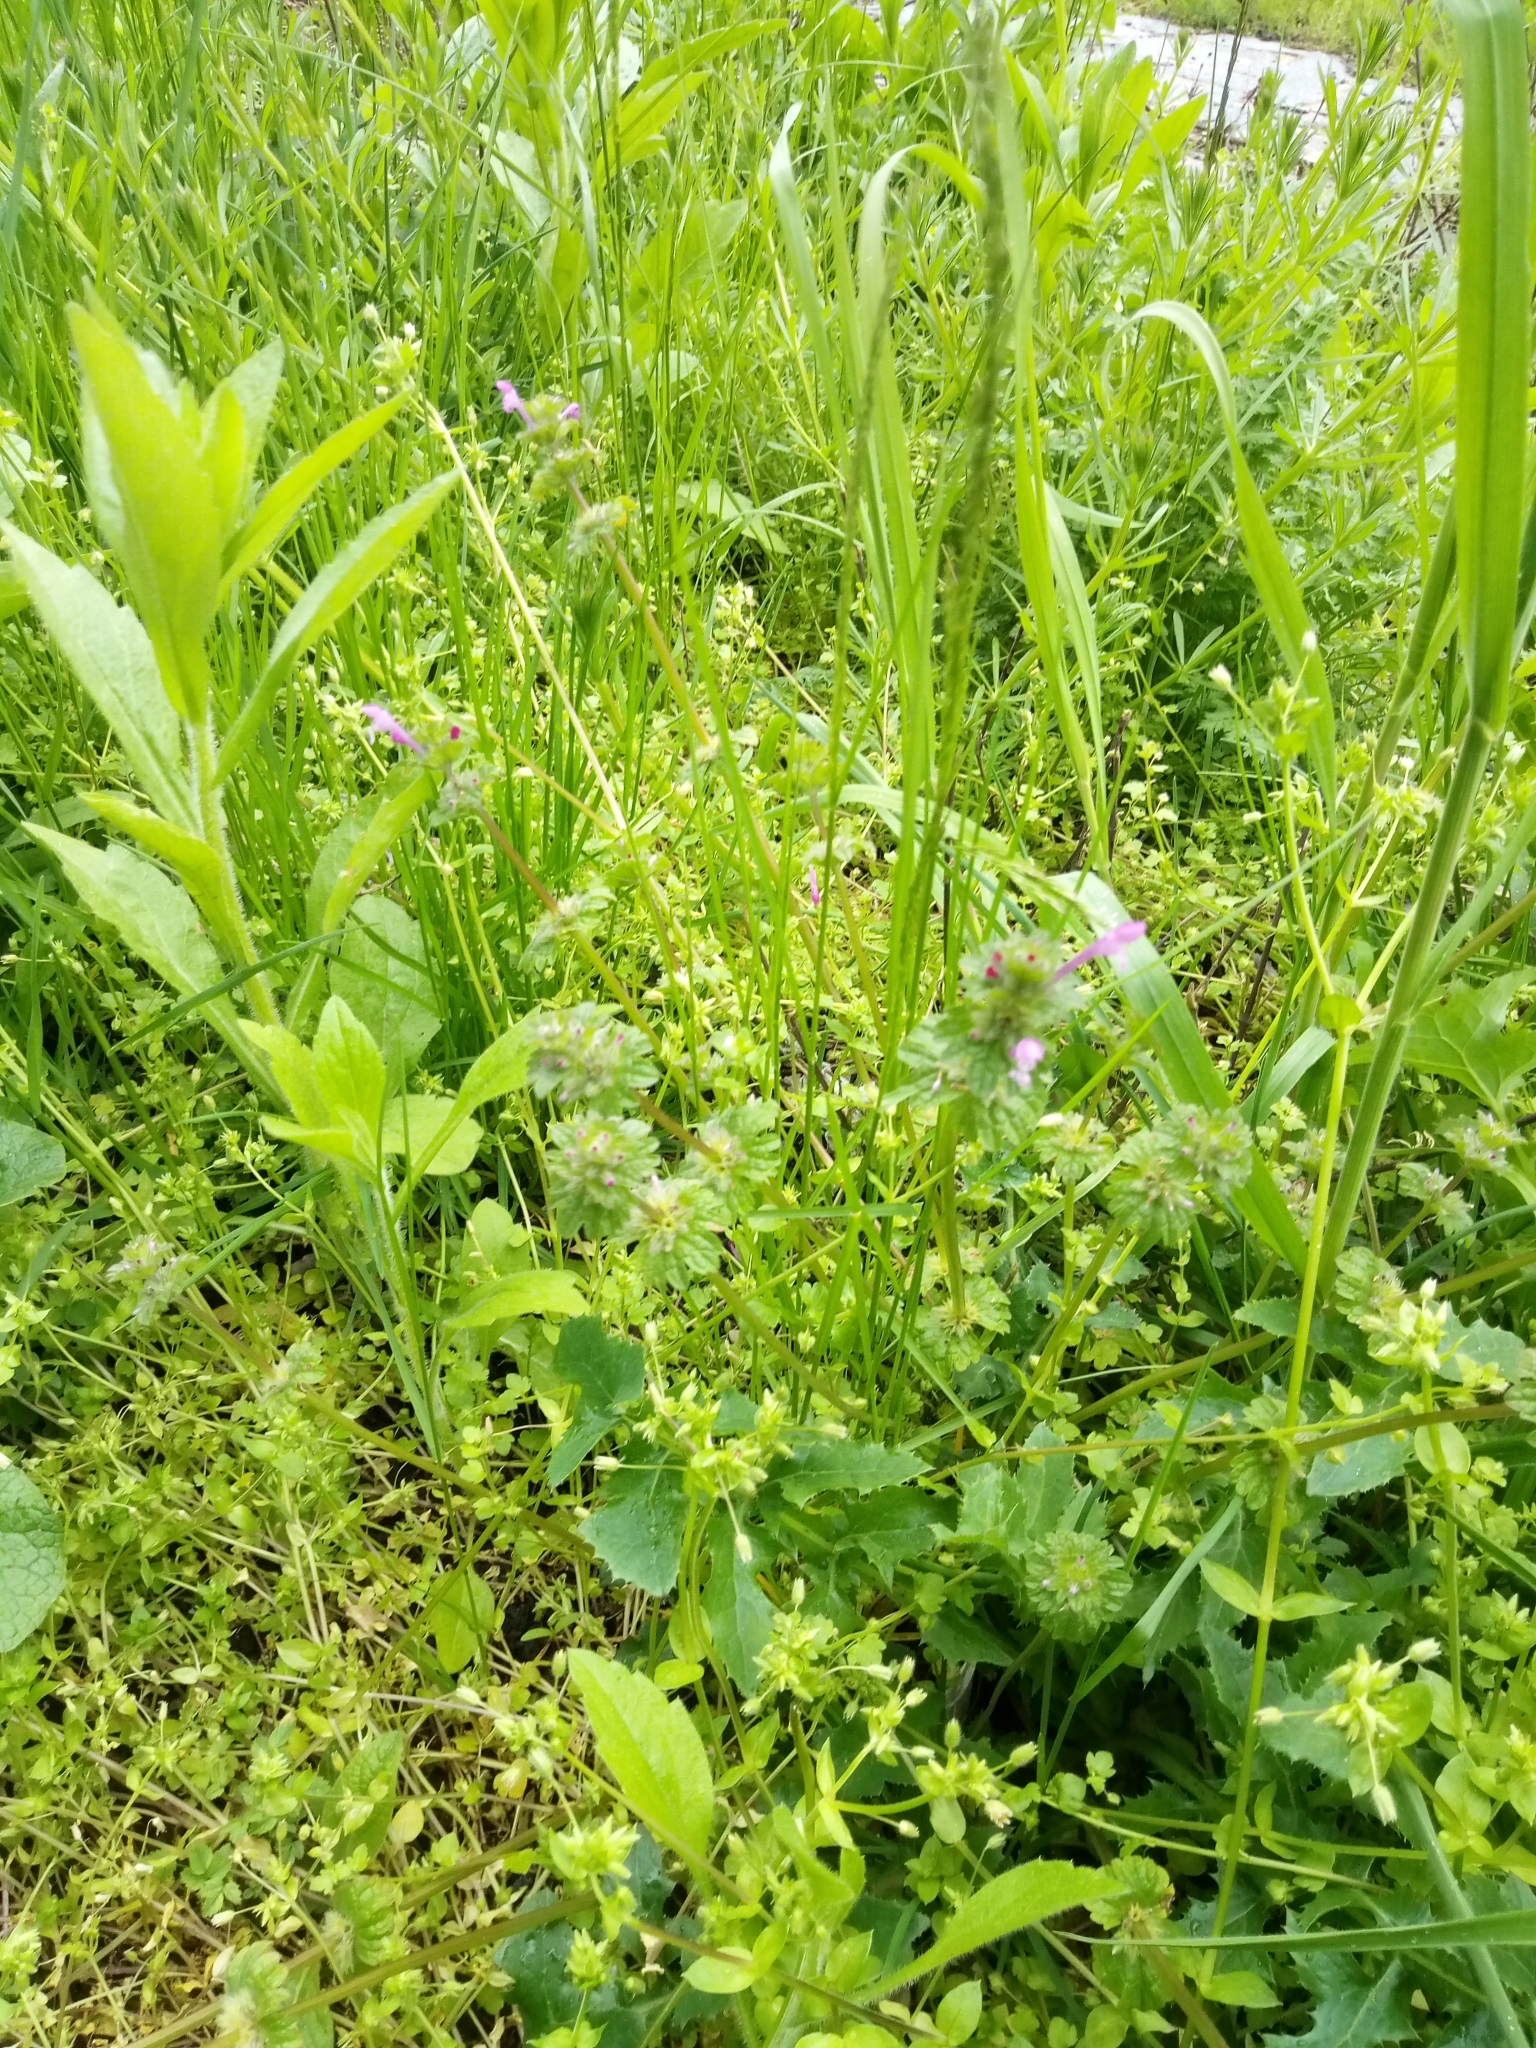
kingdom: Plantae
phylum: Tracheophyta
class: Magnoliopsida
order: Lamiales
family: Lamiaceae
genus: Lamium
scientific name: Lamium amplexicaule
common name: Henbit dead-nettle
